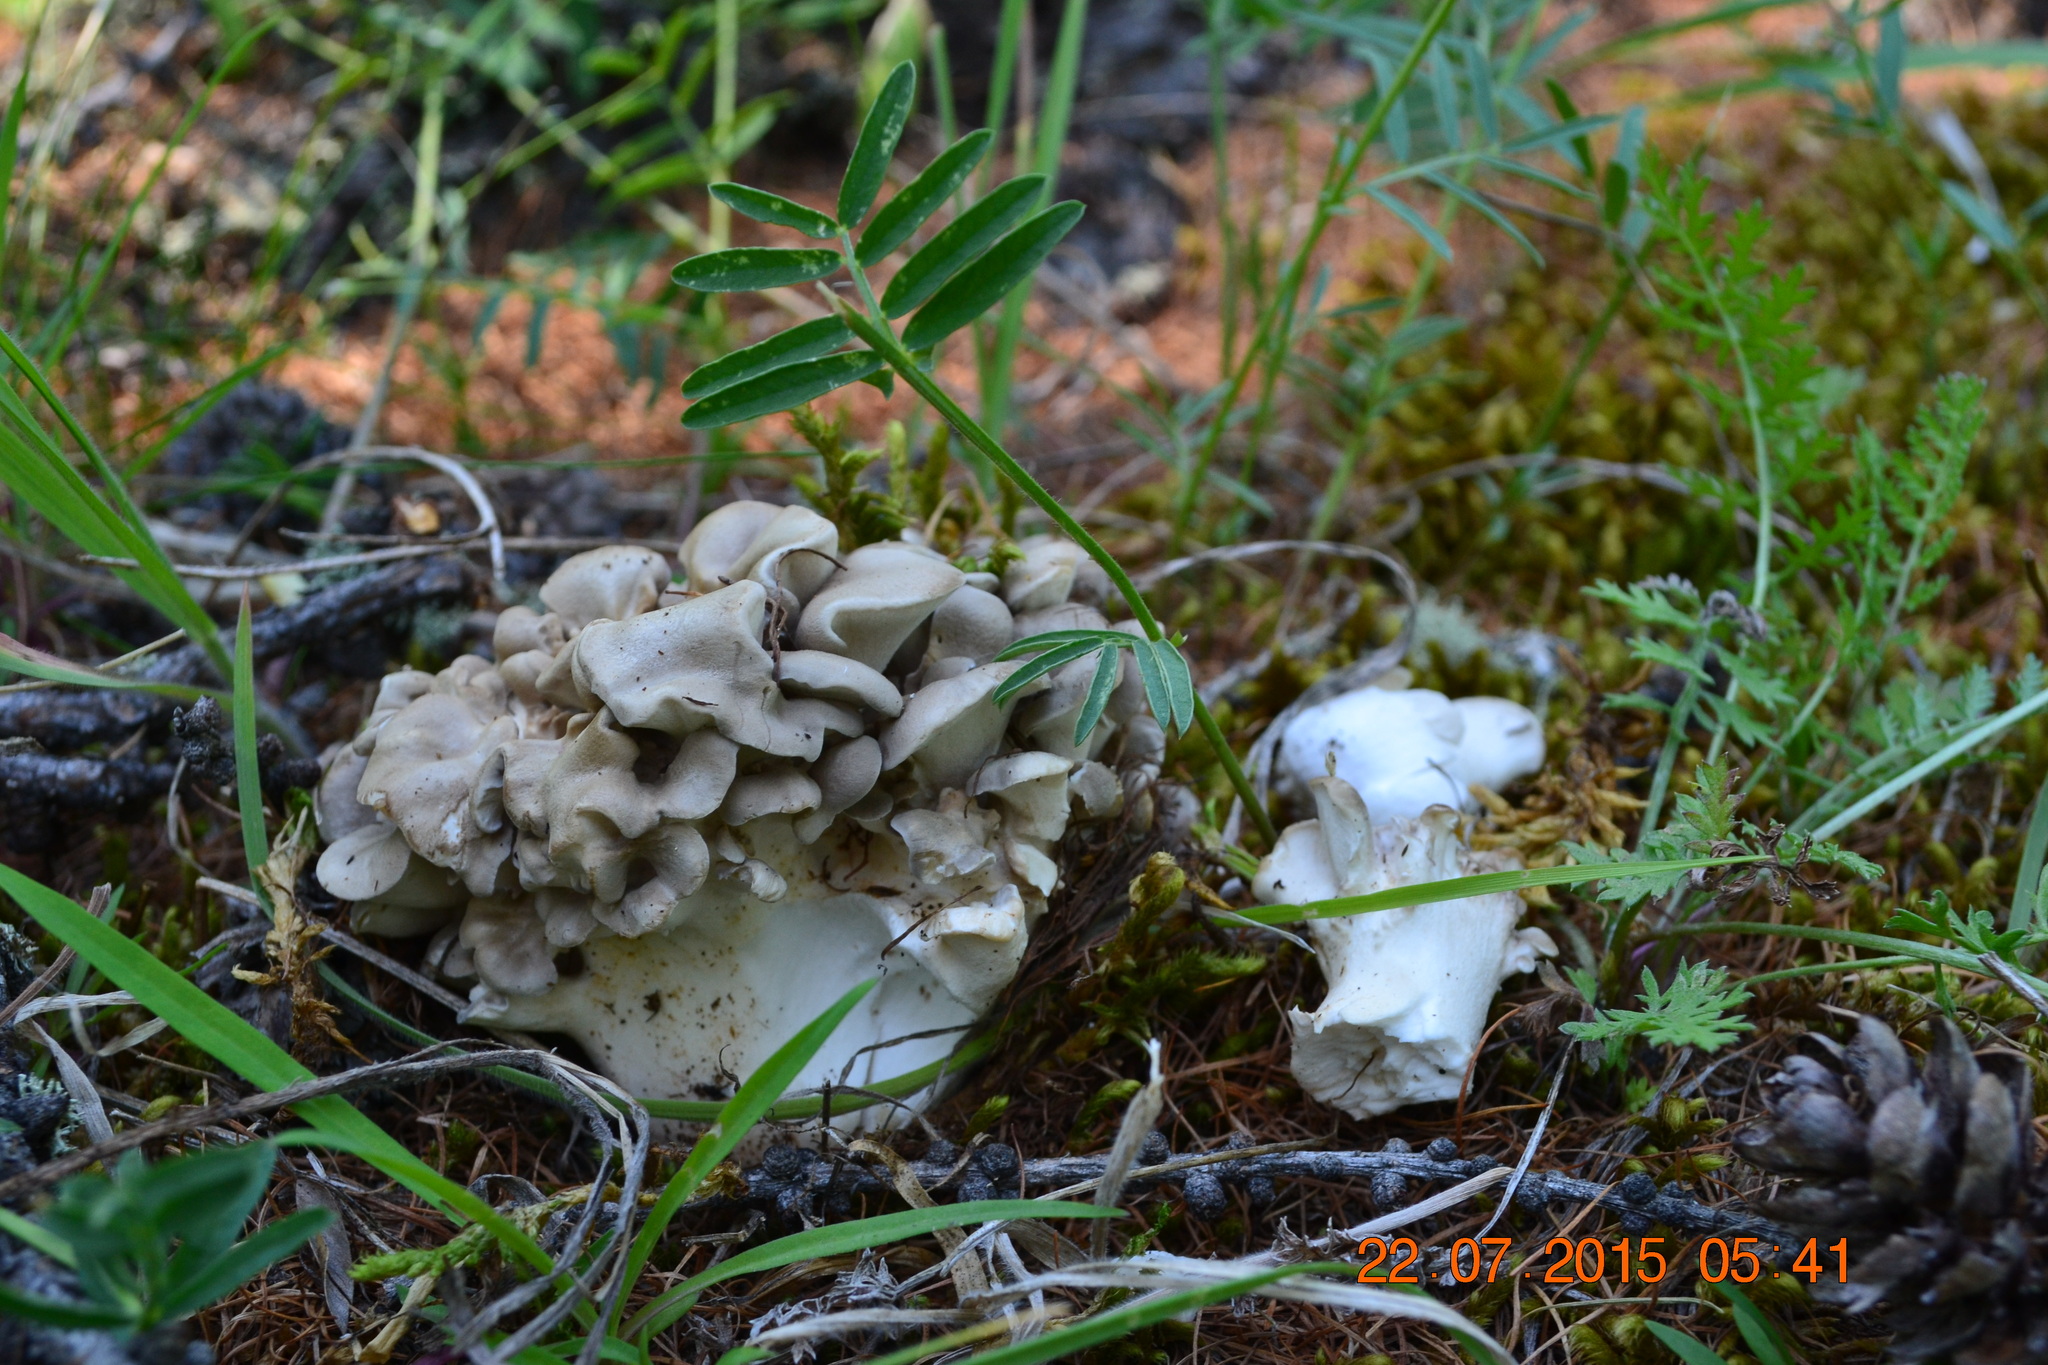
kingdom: Fungi
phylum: Basidiomycota
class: Agaricomycetes
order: Polyporales
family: Grifolaceae
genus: Grifola
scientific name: Grifola frondosa
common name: Hen of the woods
